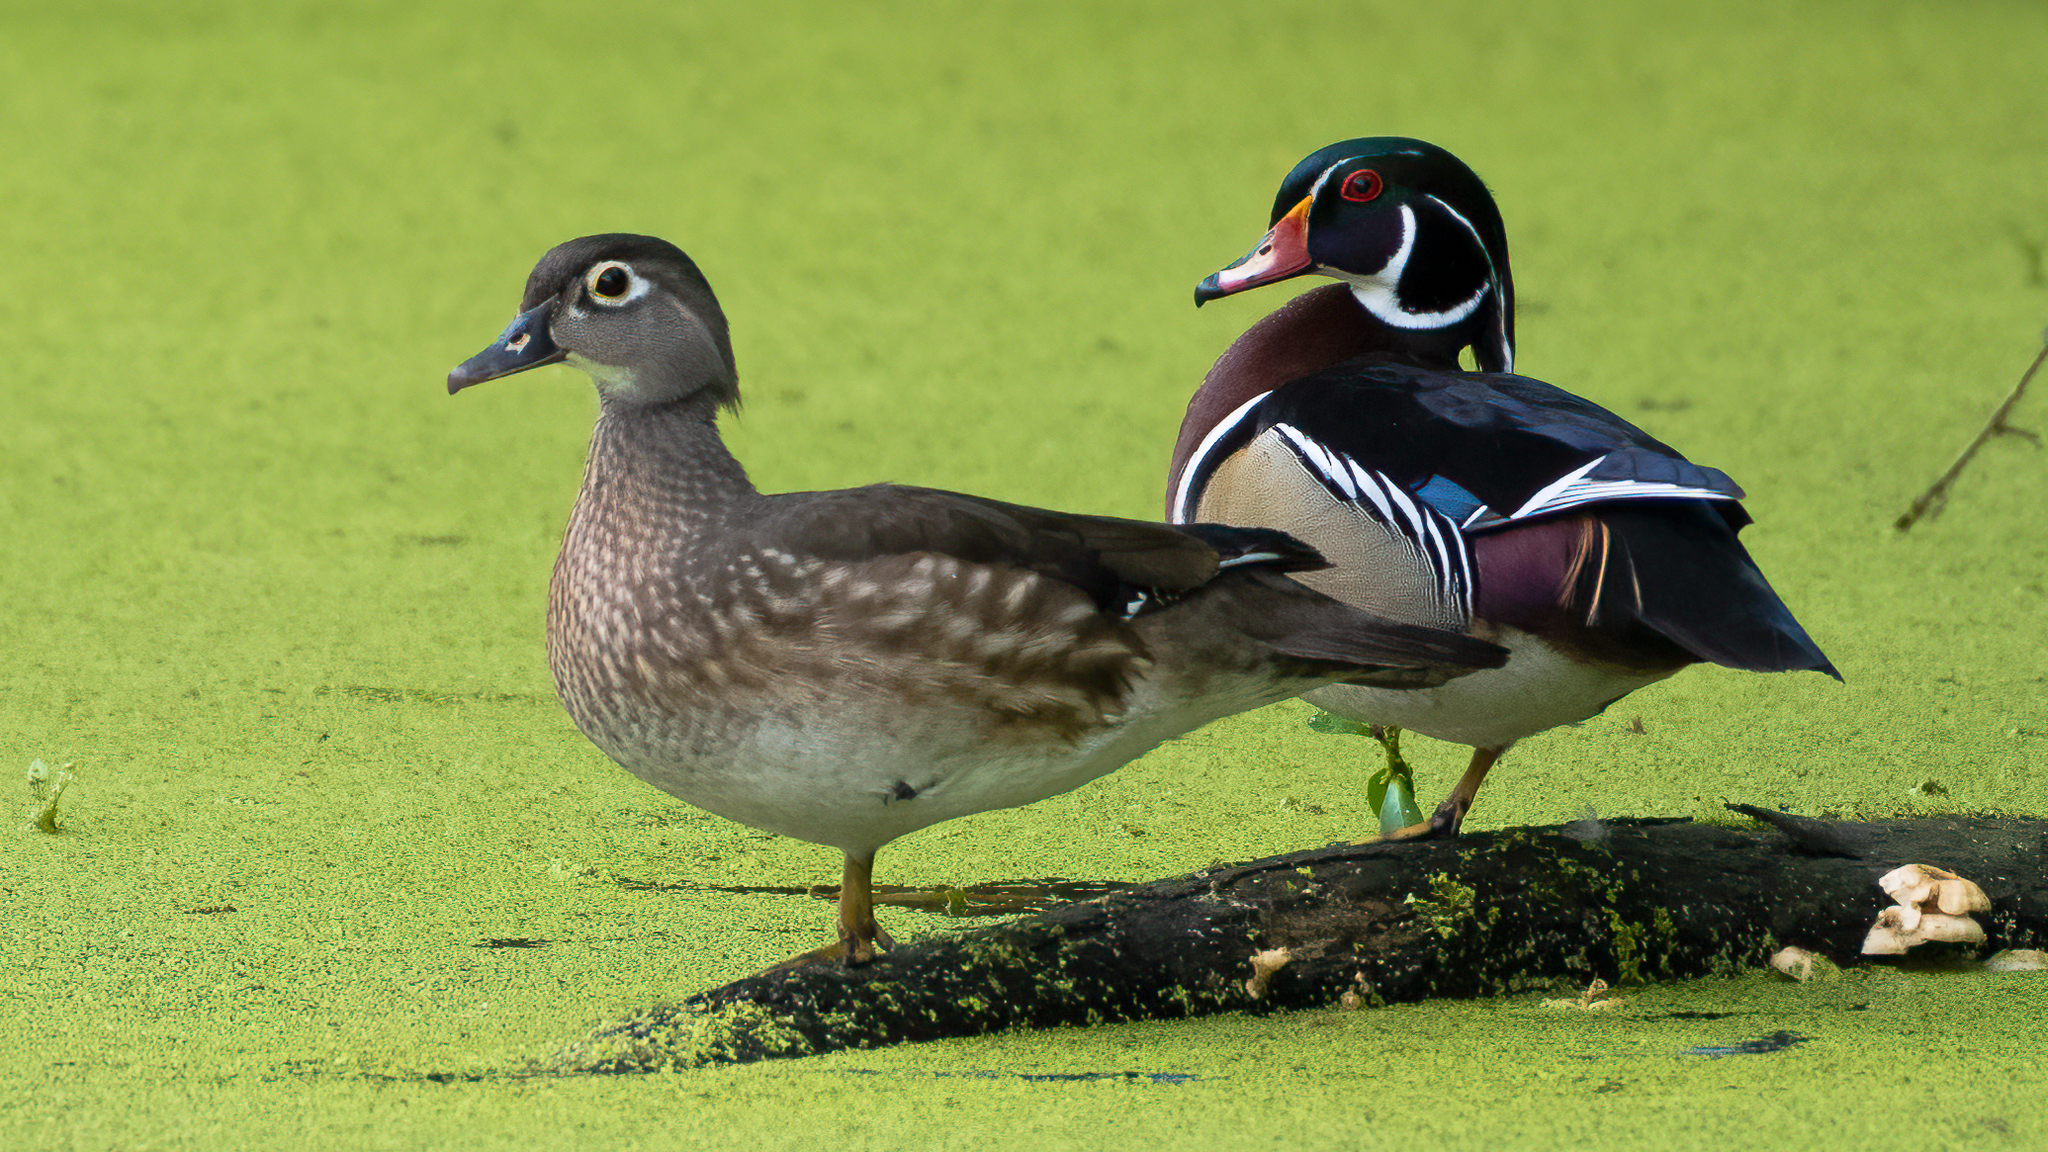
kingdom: Animalia
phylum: Chordata
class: Aves
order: Anseriformes
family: Anatidae
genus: Aix
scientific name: Aix sponsa
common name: Wood duck
